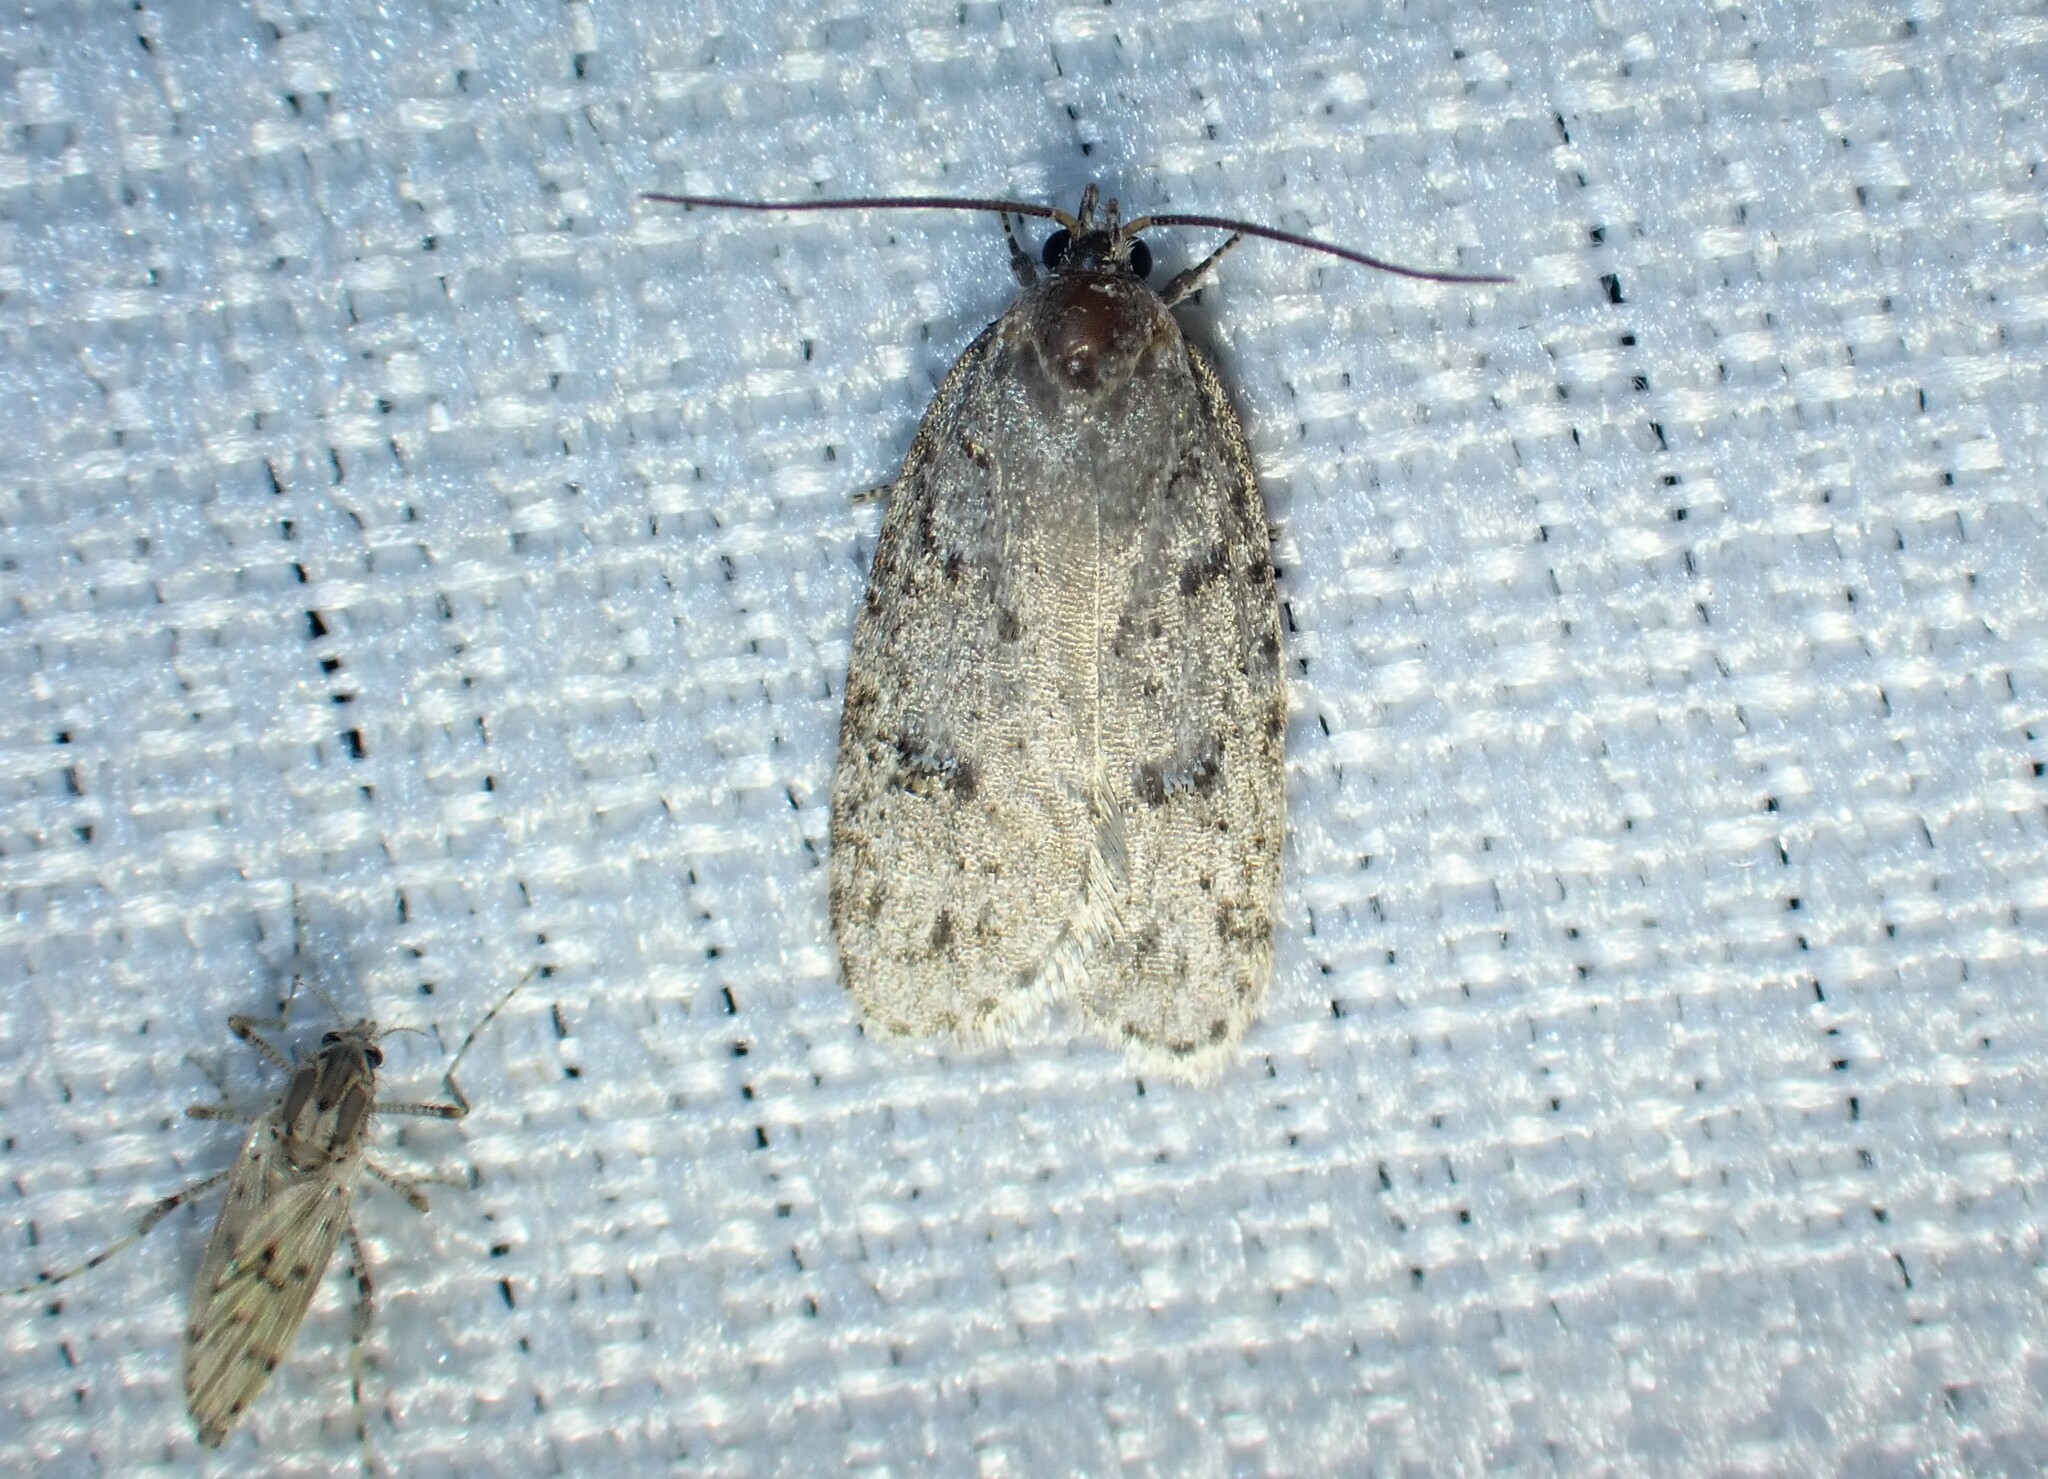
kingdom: Animalia
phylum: Arthropoda
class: Insecta
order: Lepidoptera
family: Depressariidae
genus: Bibarrambla
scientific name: Bibarrambla allenella
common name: Bog bibarrambla moth
